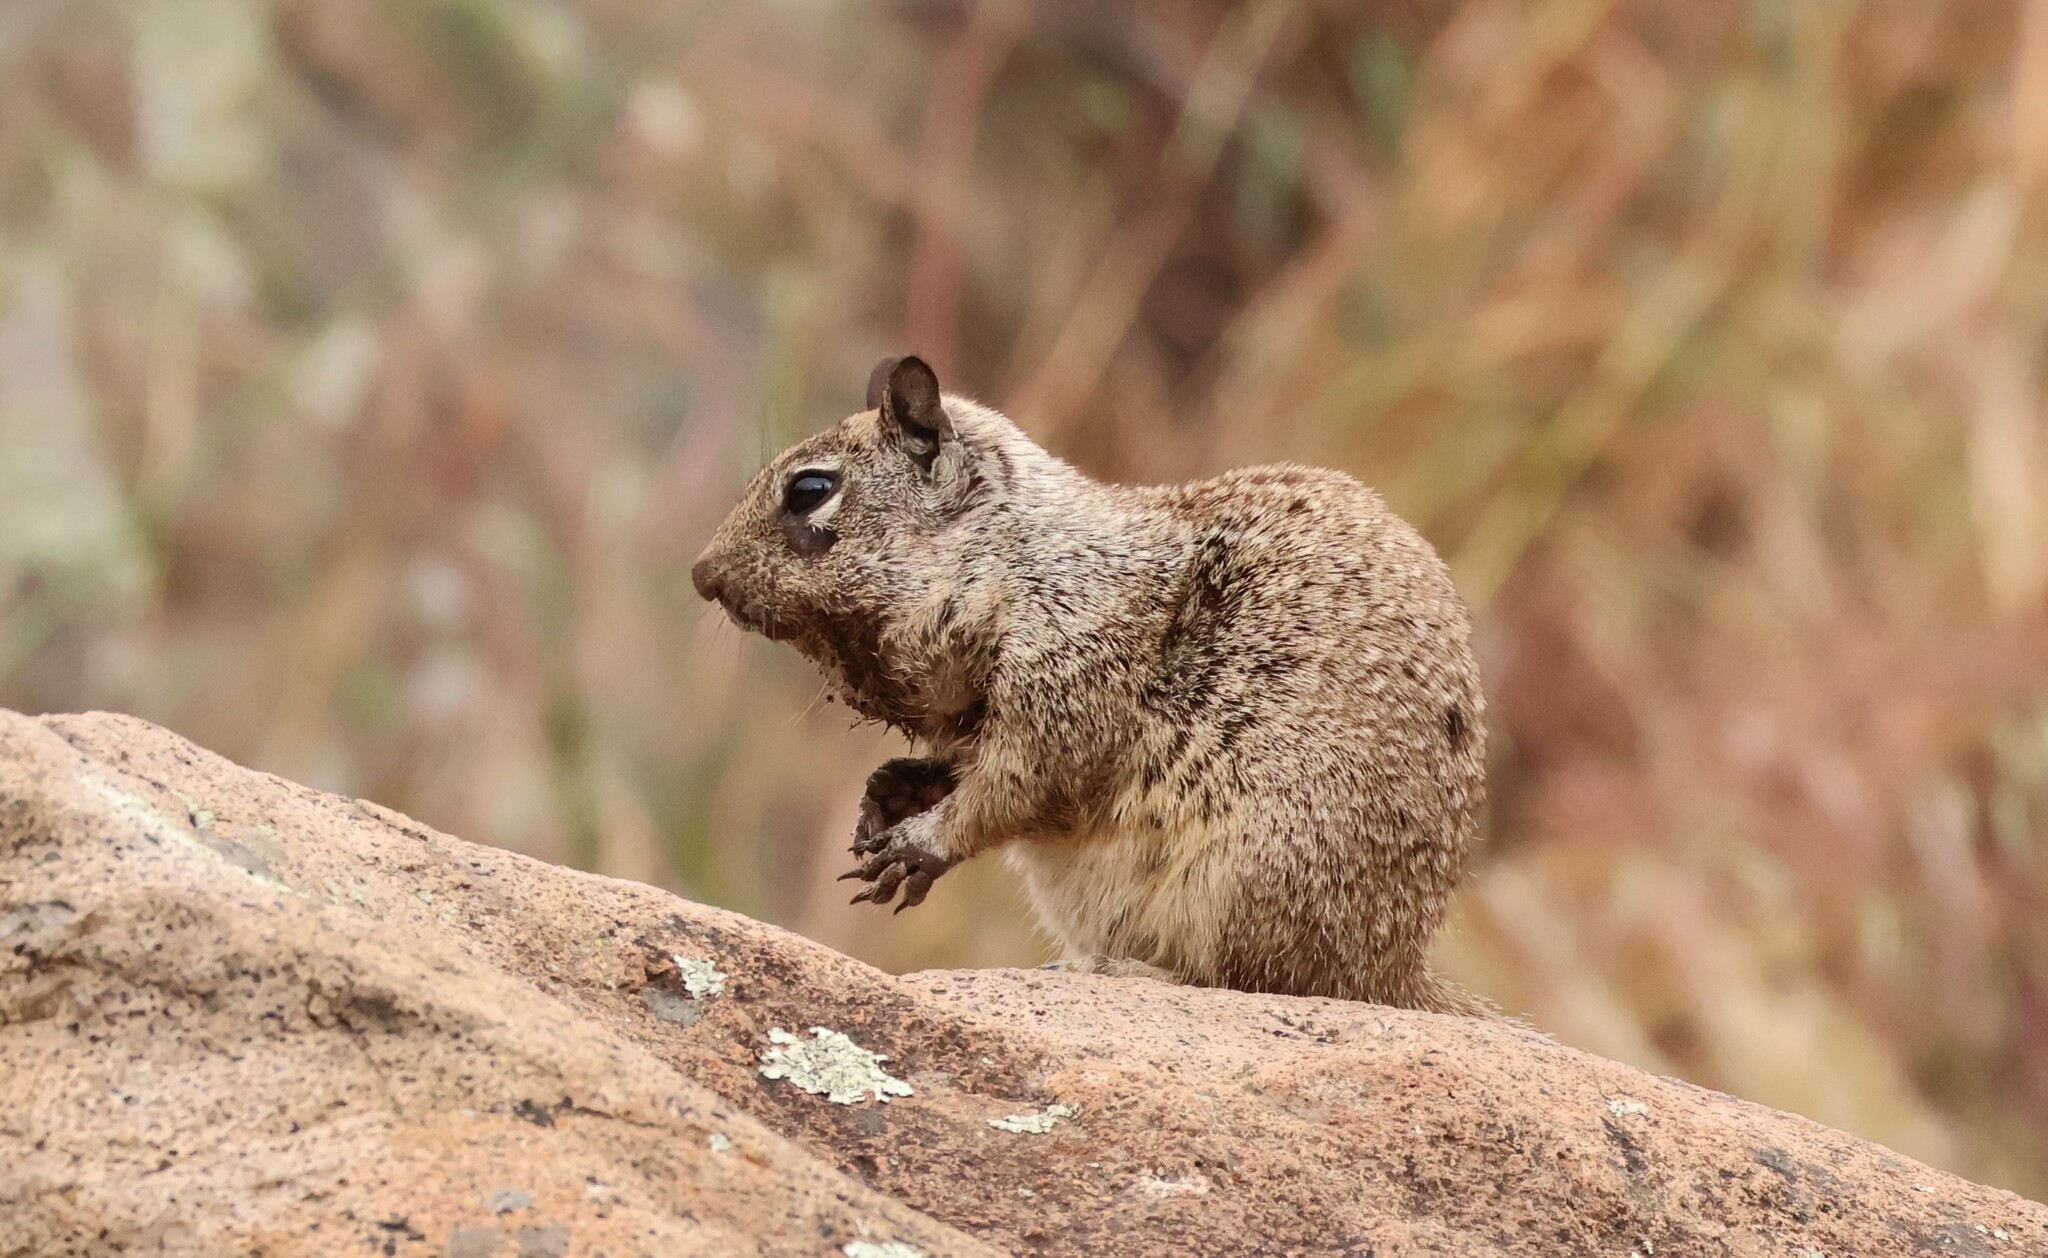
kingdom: Animalia
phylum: Chordata
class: Mammalia
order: Rodentia
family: Sciuridae
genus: Otospermophilus
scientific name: Otospermophilus beecheyi
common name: California ground squirrel
